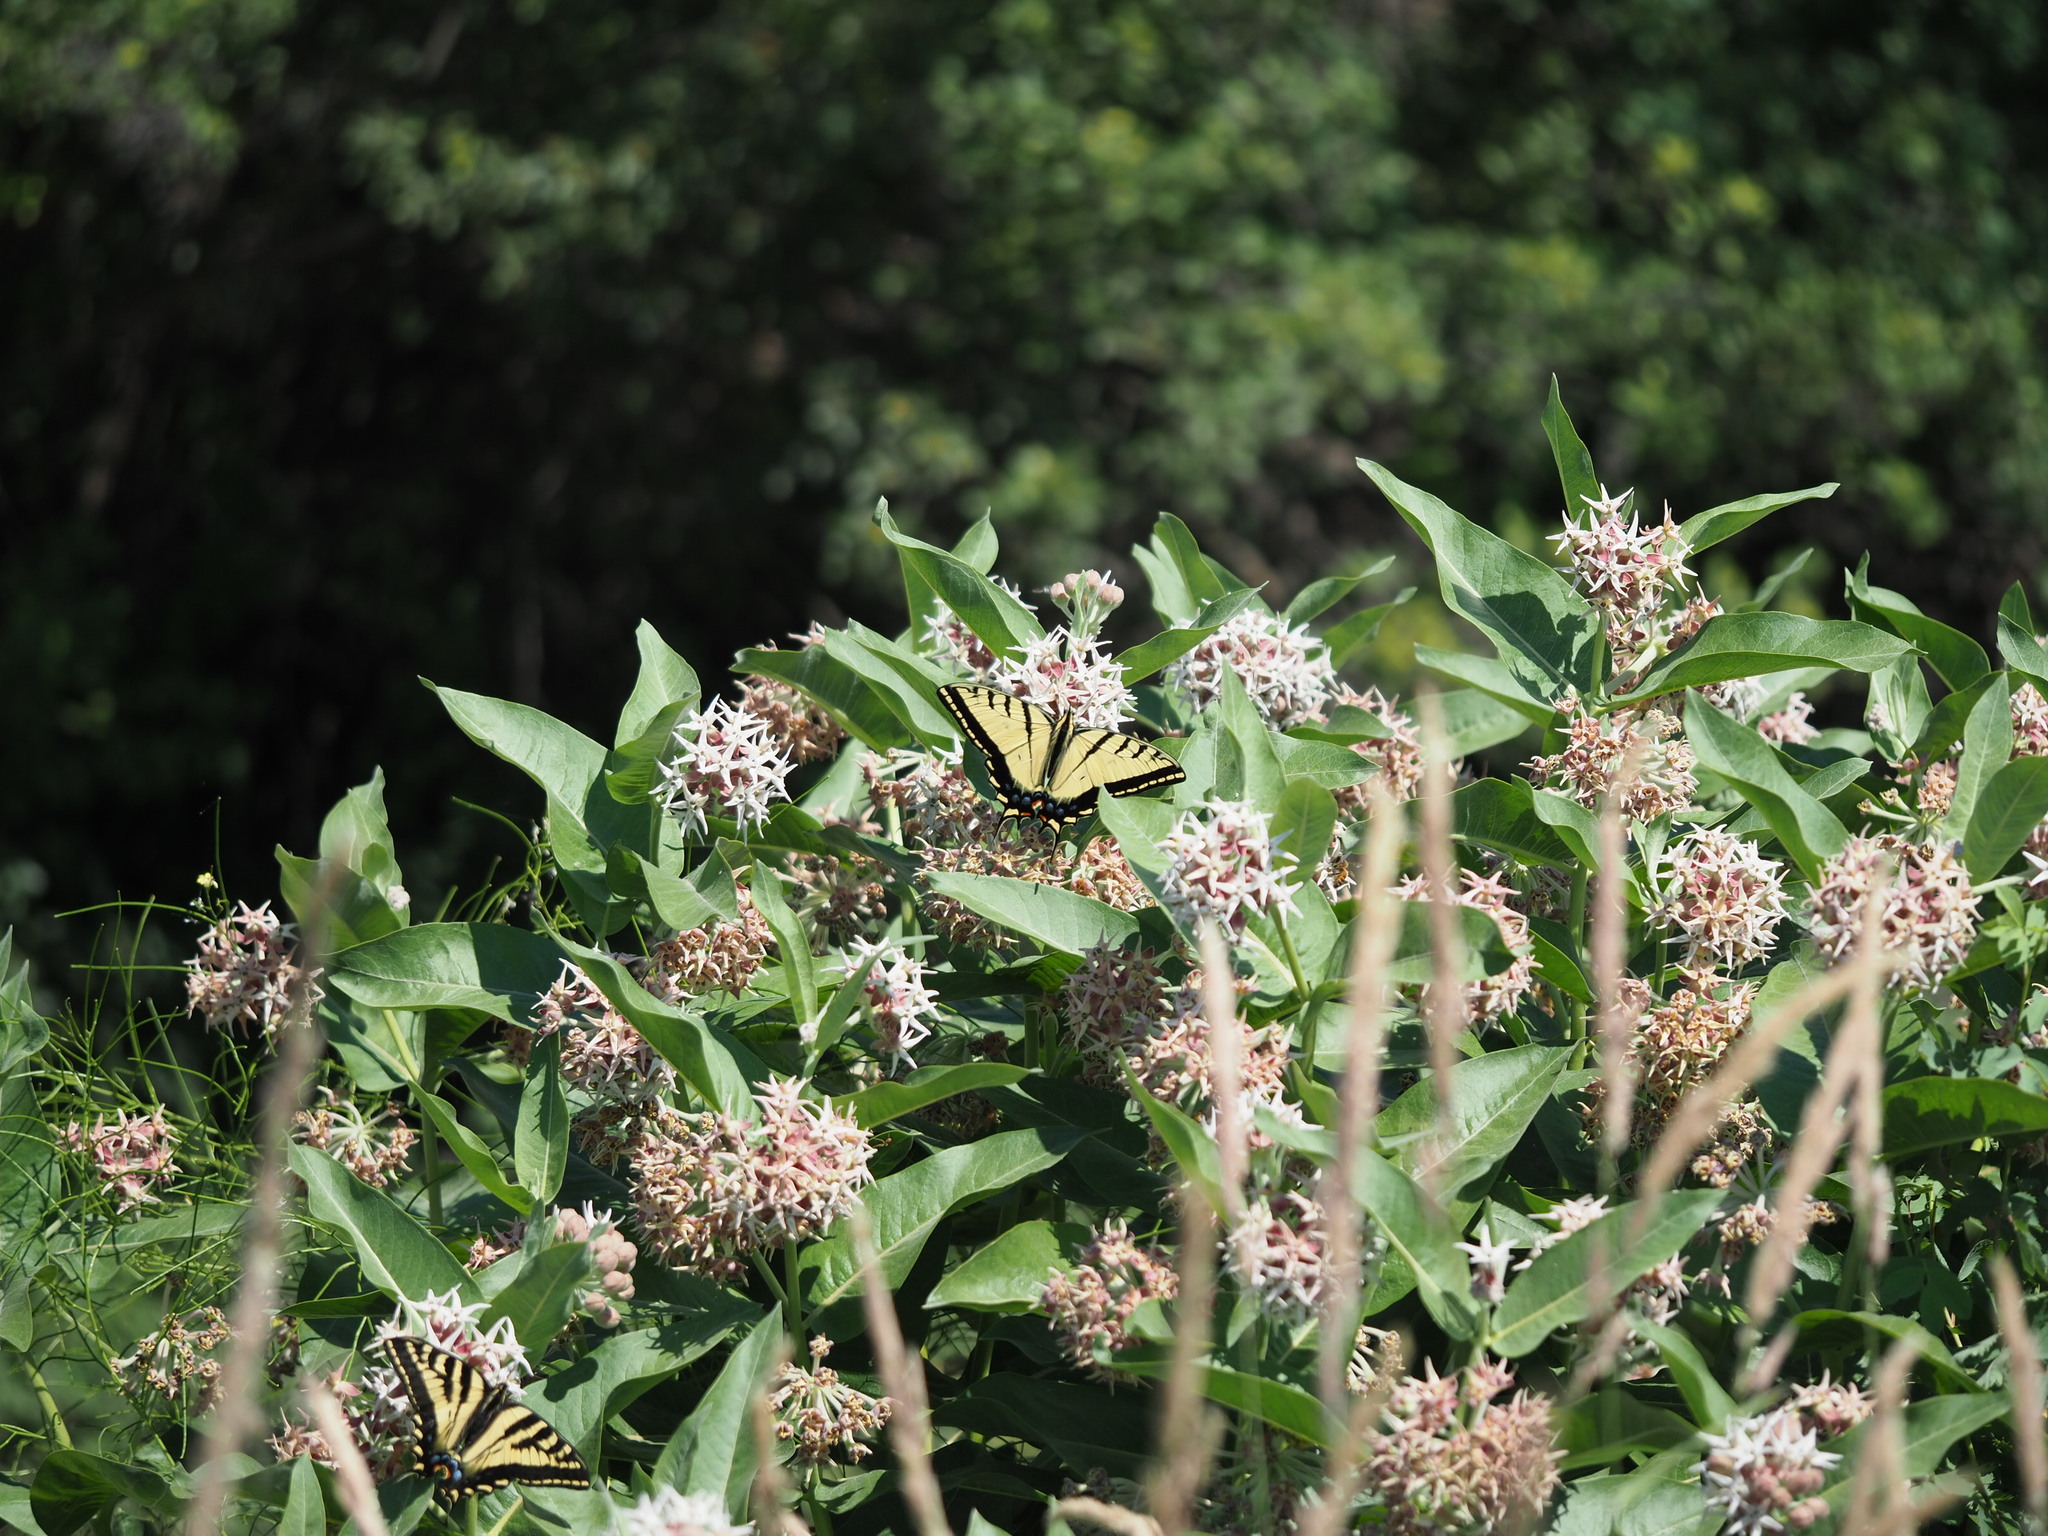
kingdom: Animalia
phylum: Arthropoda
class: Insecta
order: Lepidoptera
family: Papilionidae
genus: Papilio
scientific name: Papilio multicaudata
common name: Two-tailed tiger swallowtail
